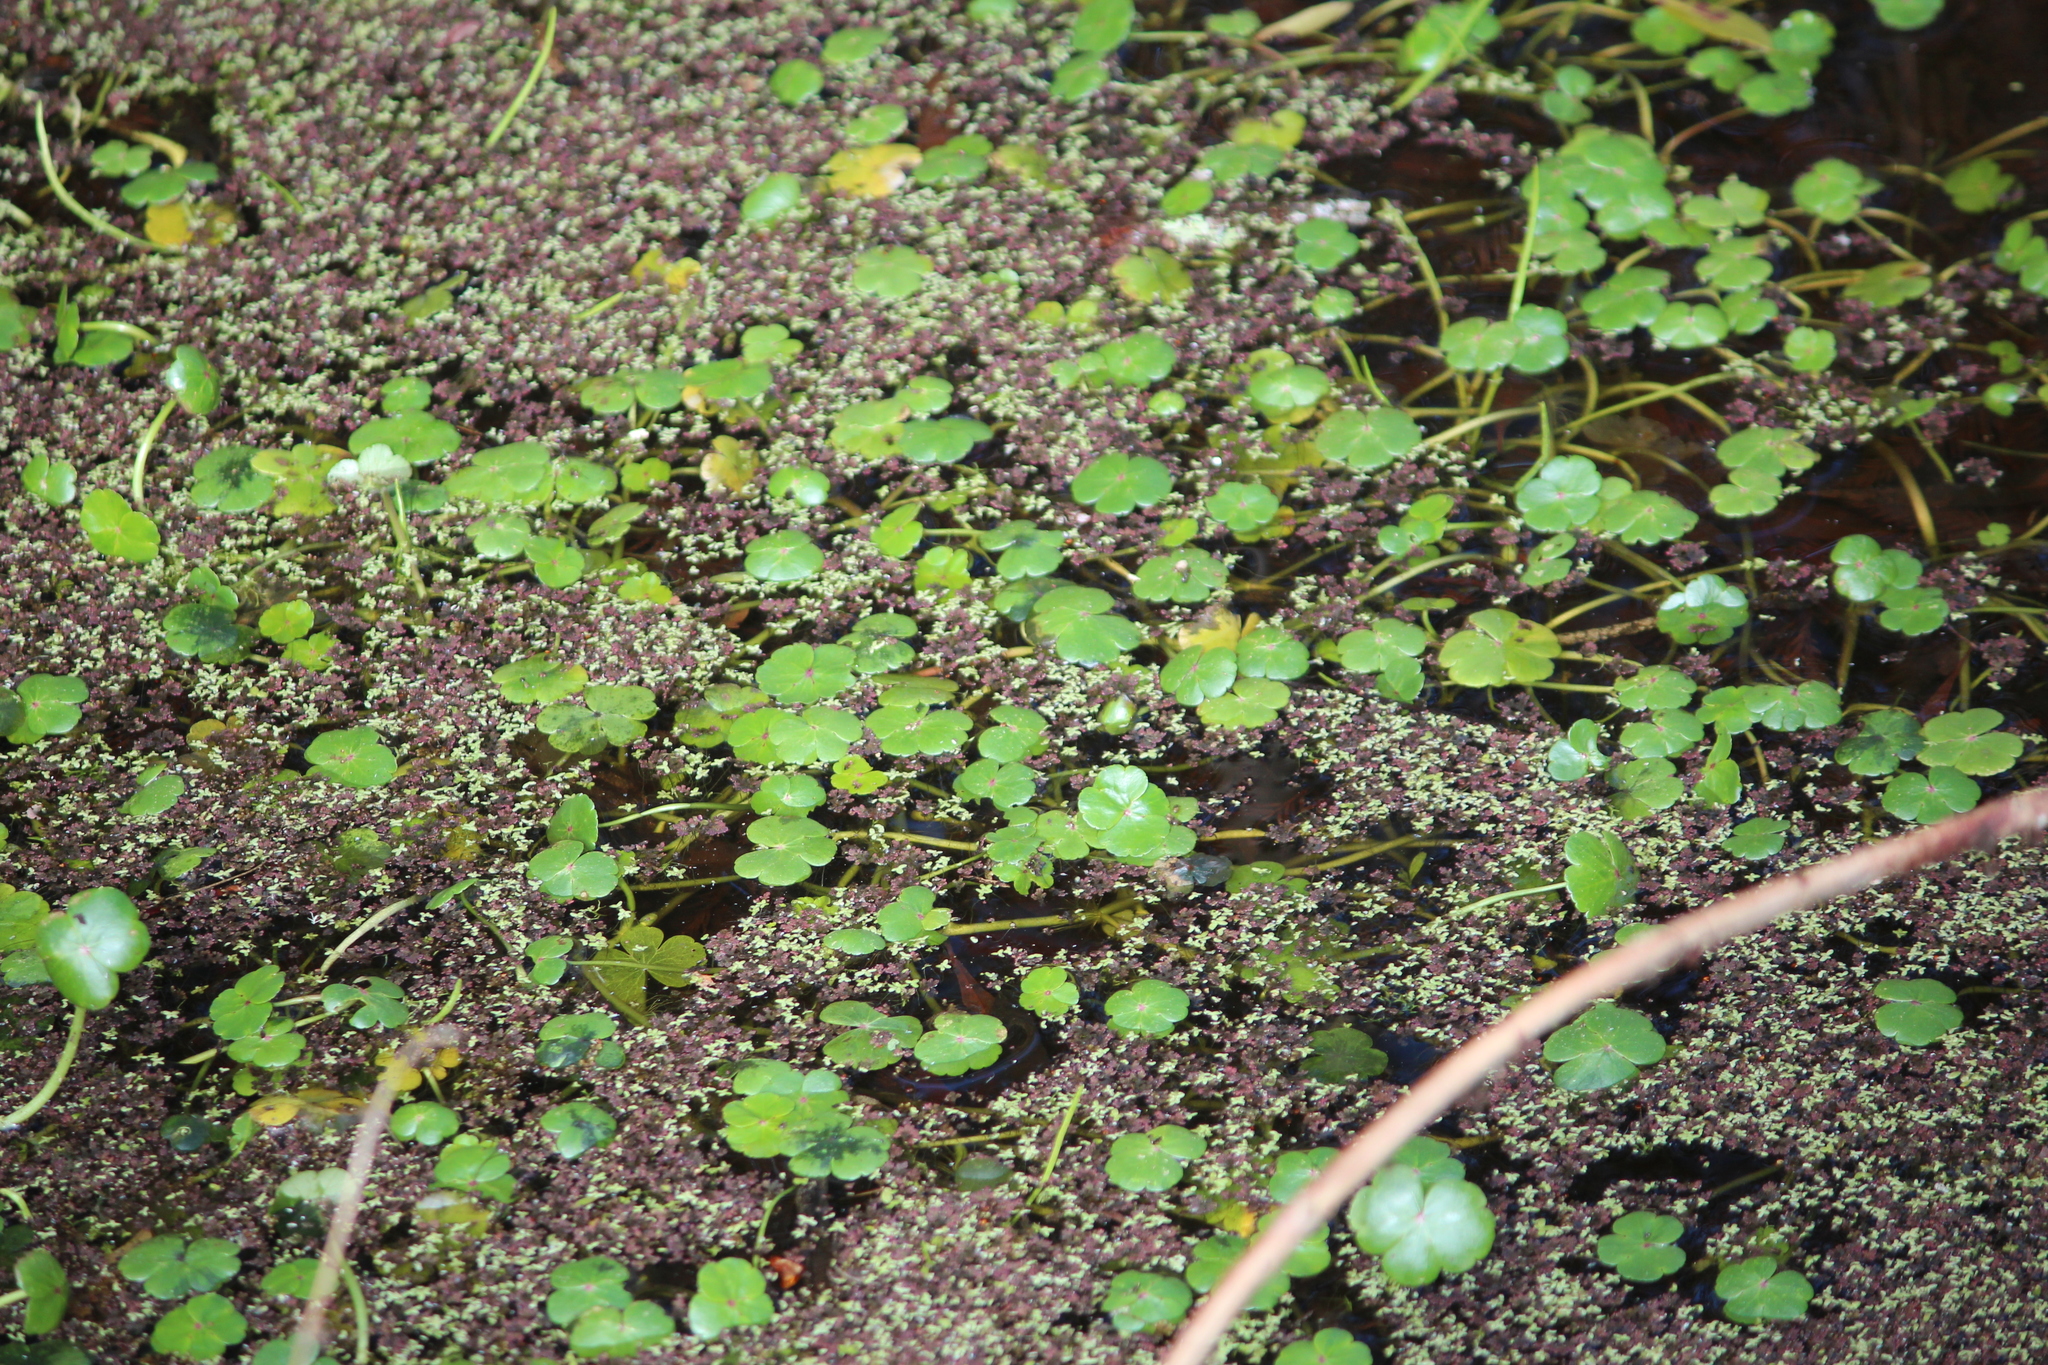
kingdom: Plantae
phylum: Tracheophyta
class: Magnoliopsida
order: Apiales
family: Araliaceae
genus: Hydrocotyle
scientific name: Hydrocotyle ranunculoides
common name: Floating pennywort
